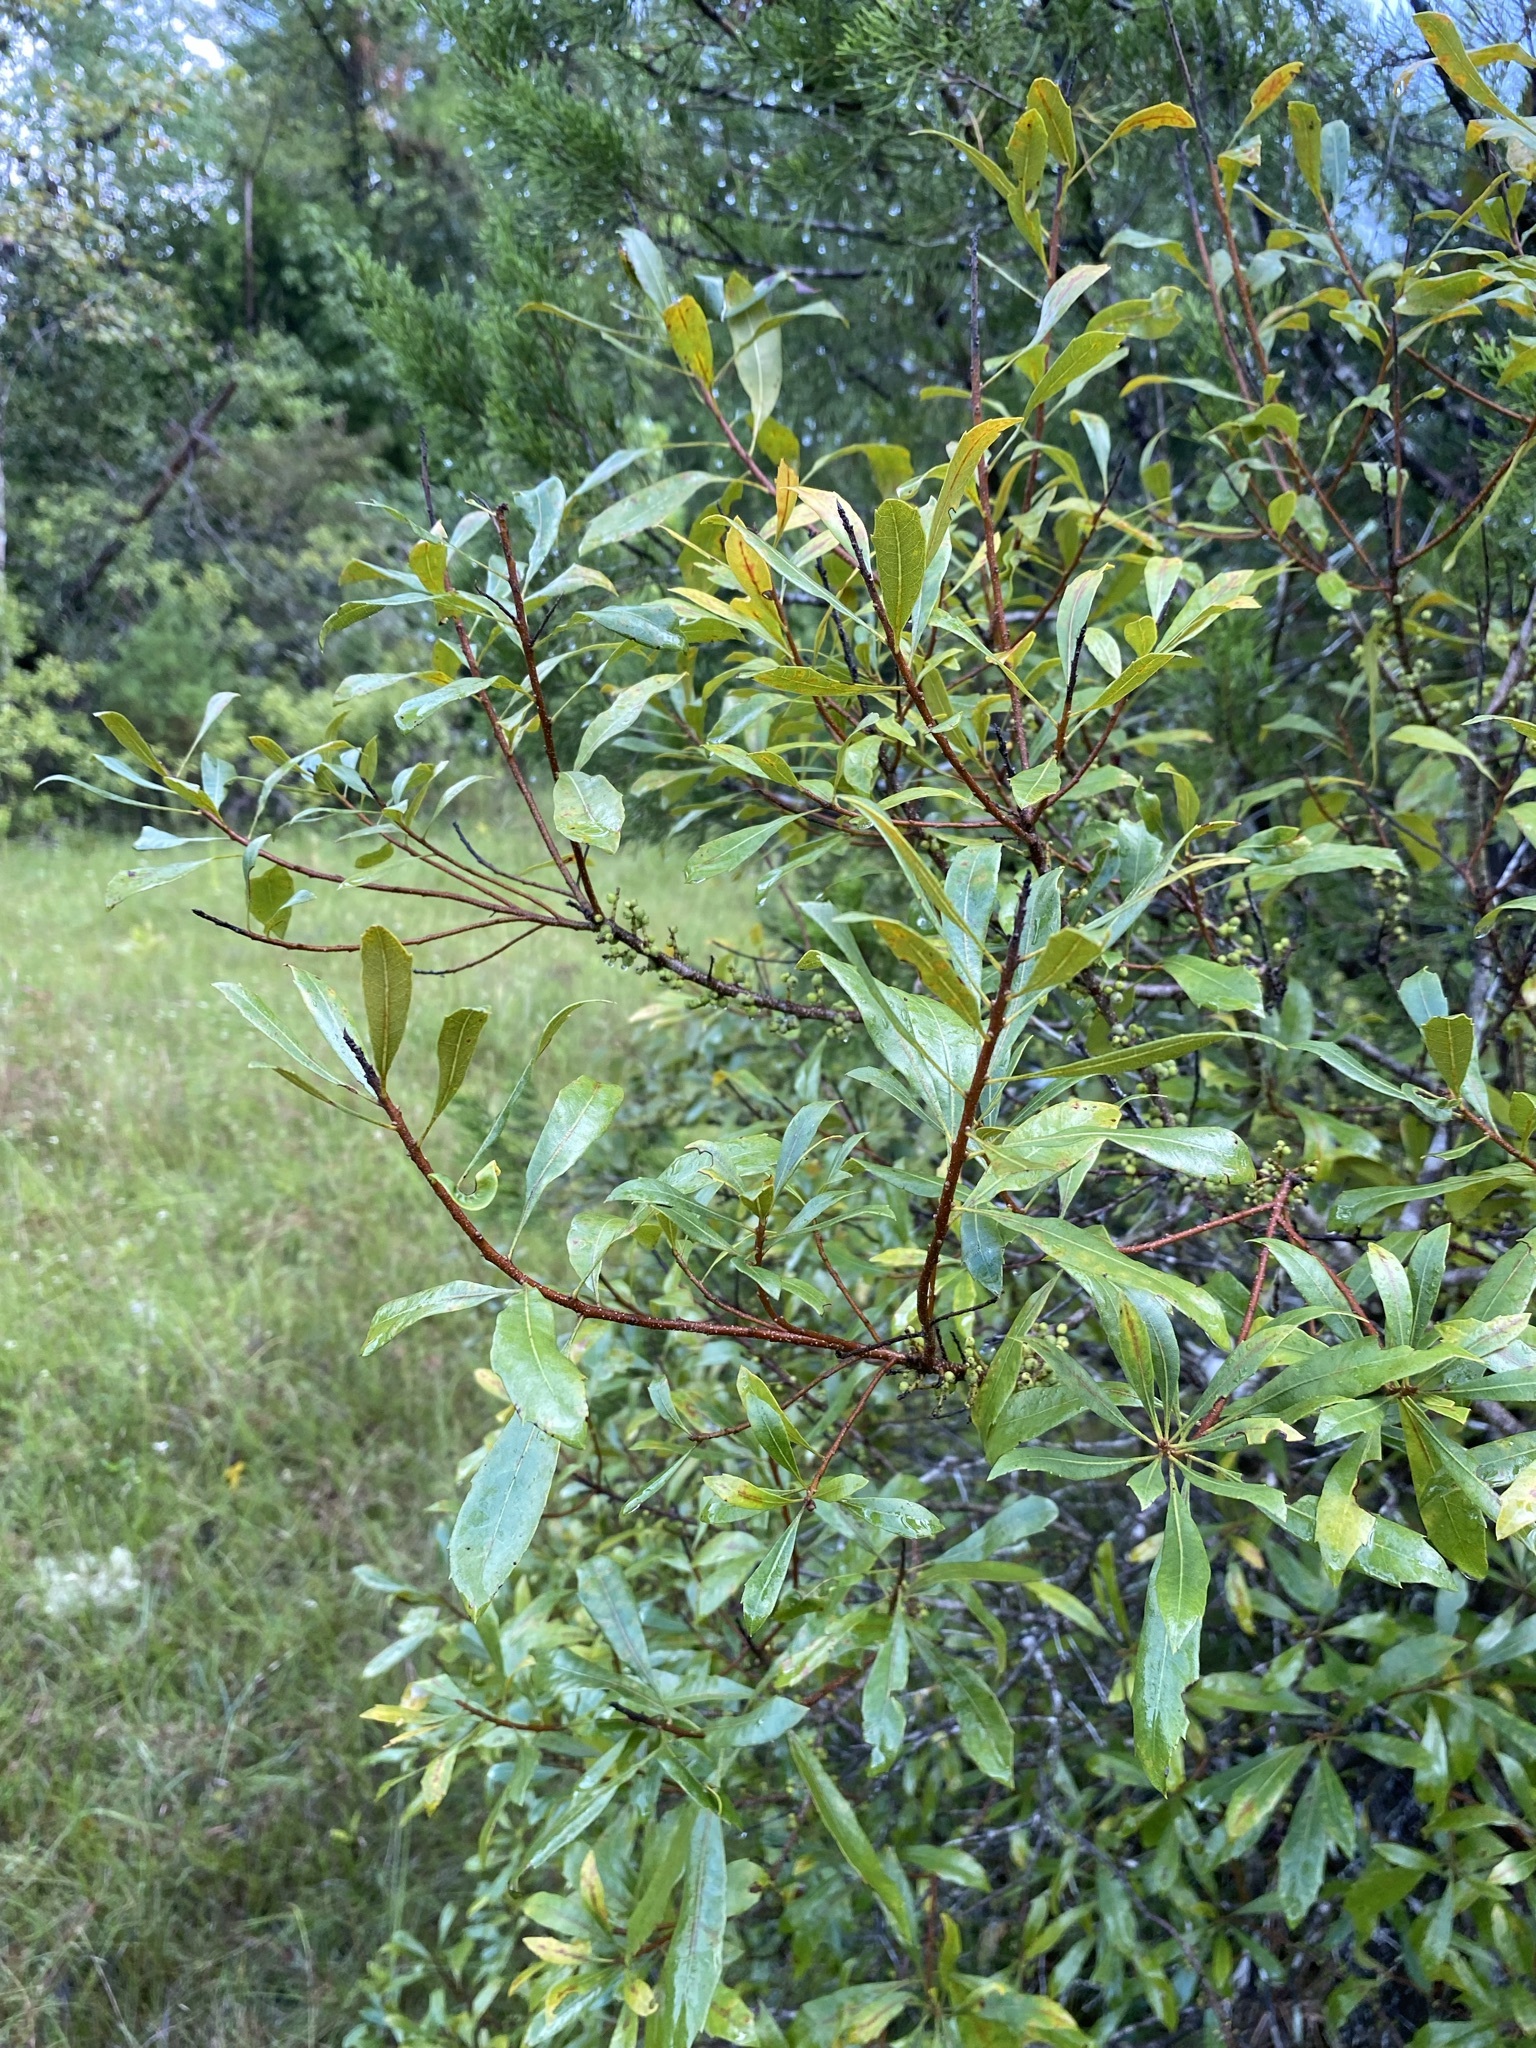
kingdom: Plantae
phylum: Tracheophyta
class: Magnoliopsida
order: Fagales
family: Myricaceae
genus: Morella
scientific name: Morella cerifera
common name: Wax myrtle
